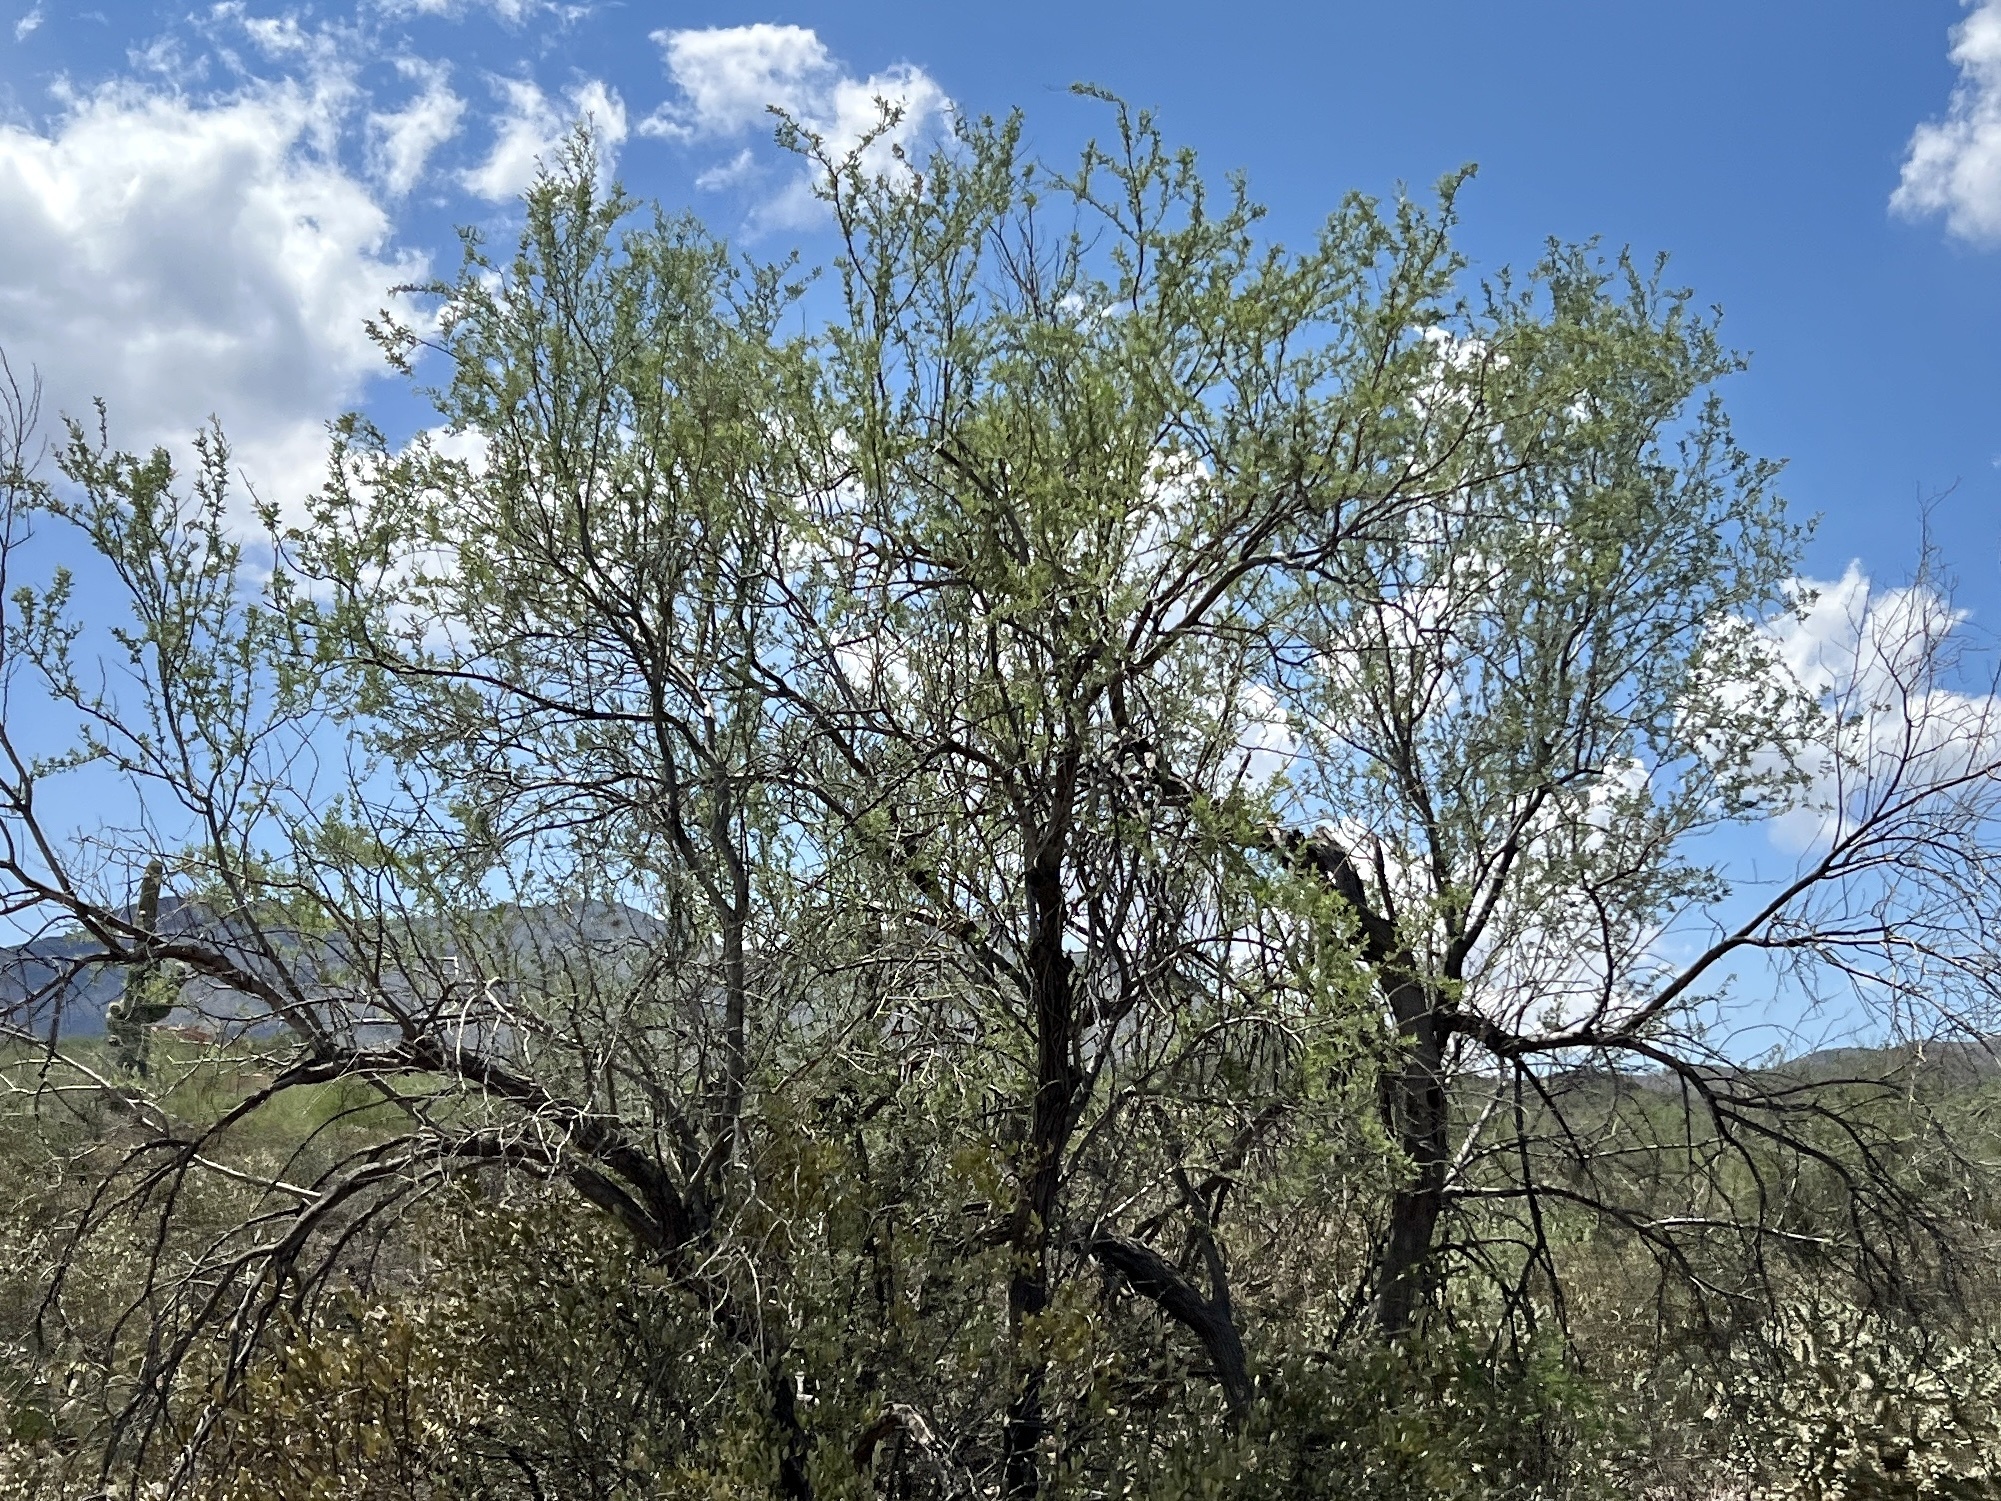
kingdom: Plantae
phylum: Tracheophyta
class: Magnoliopsida
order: Fabales
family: Fabaceae
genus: Olneya
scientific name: Olneya tesota
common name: Desert ironwood
